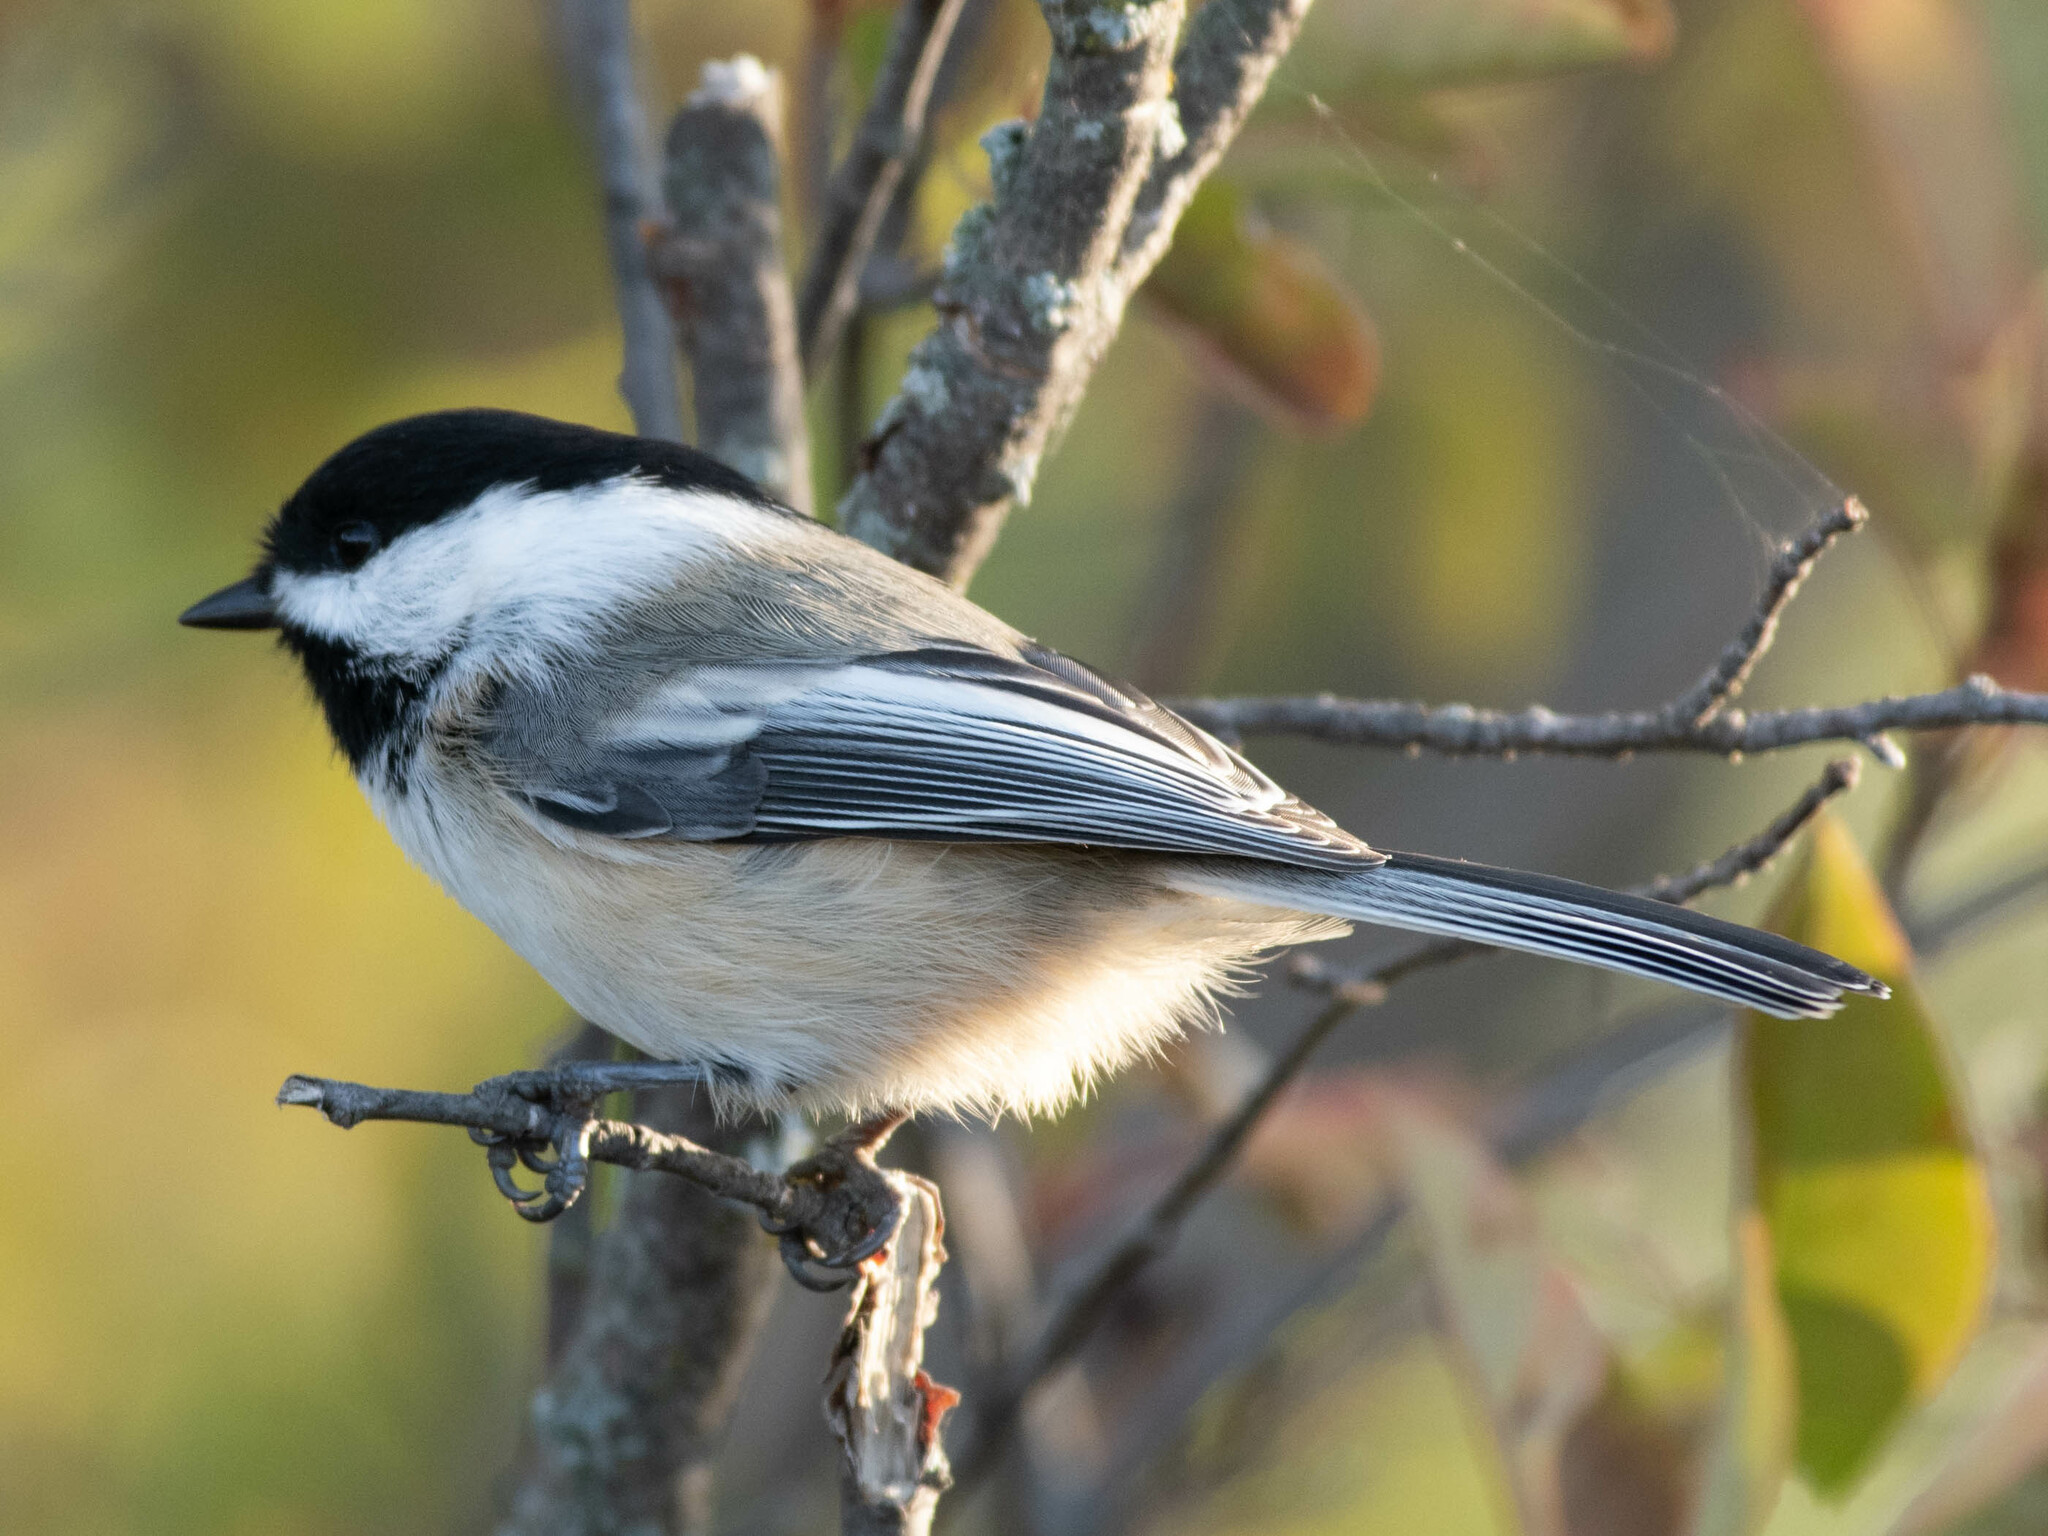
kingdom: Animalia
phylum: Chordata
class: Aves
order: Passeriformes
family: Paridae
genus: Poecile
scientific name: Poecile atricapillus
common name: Black-capped chickadee
